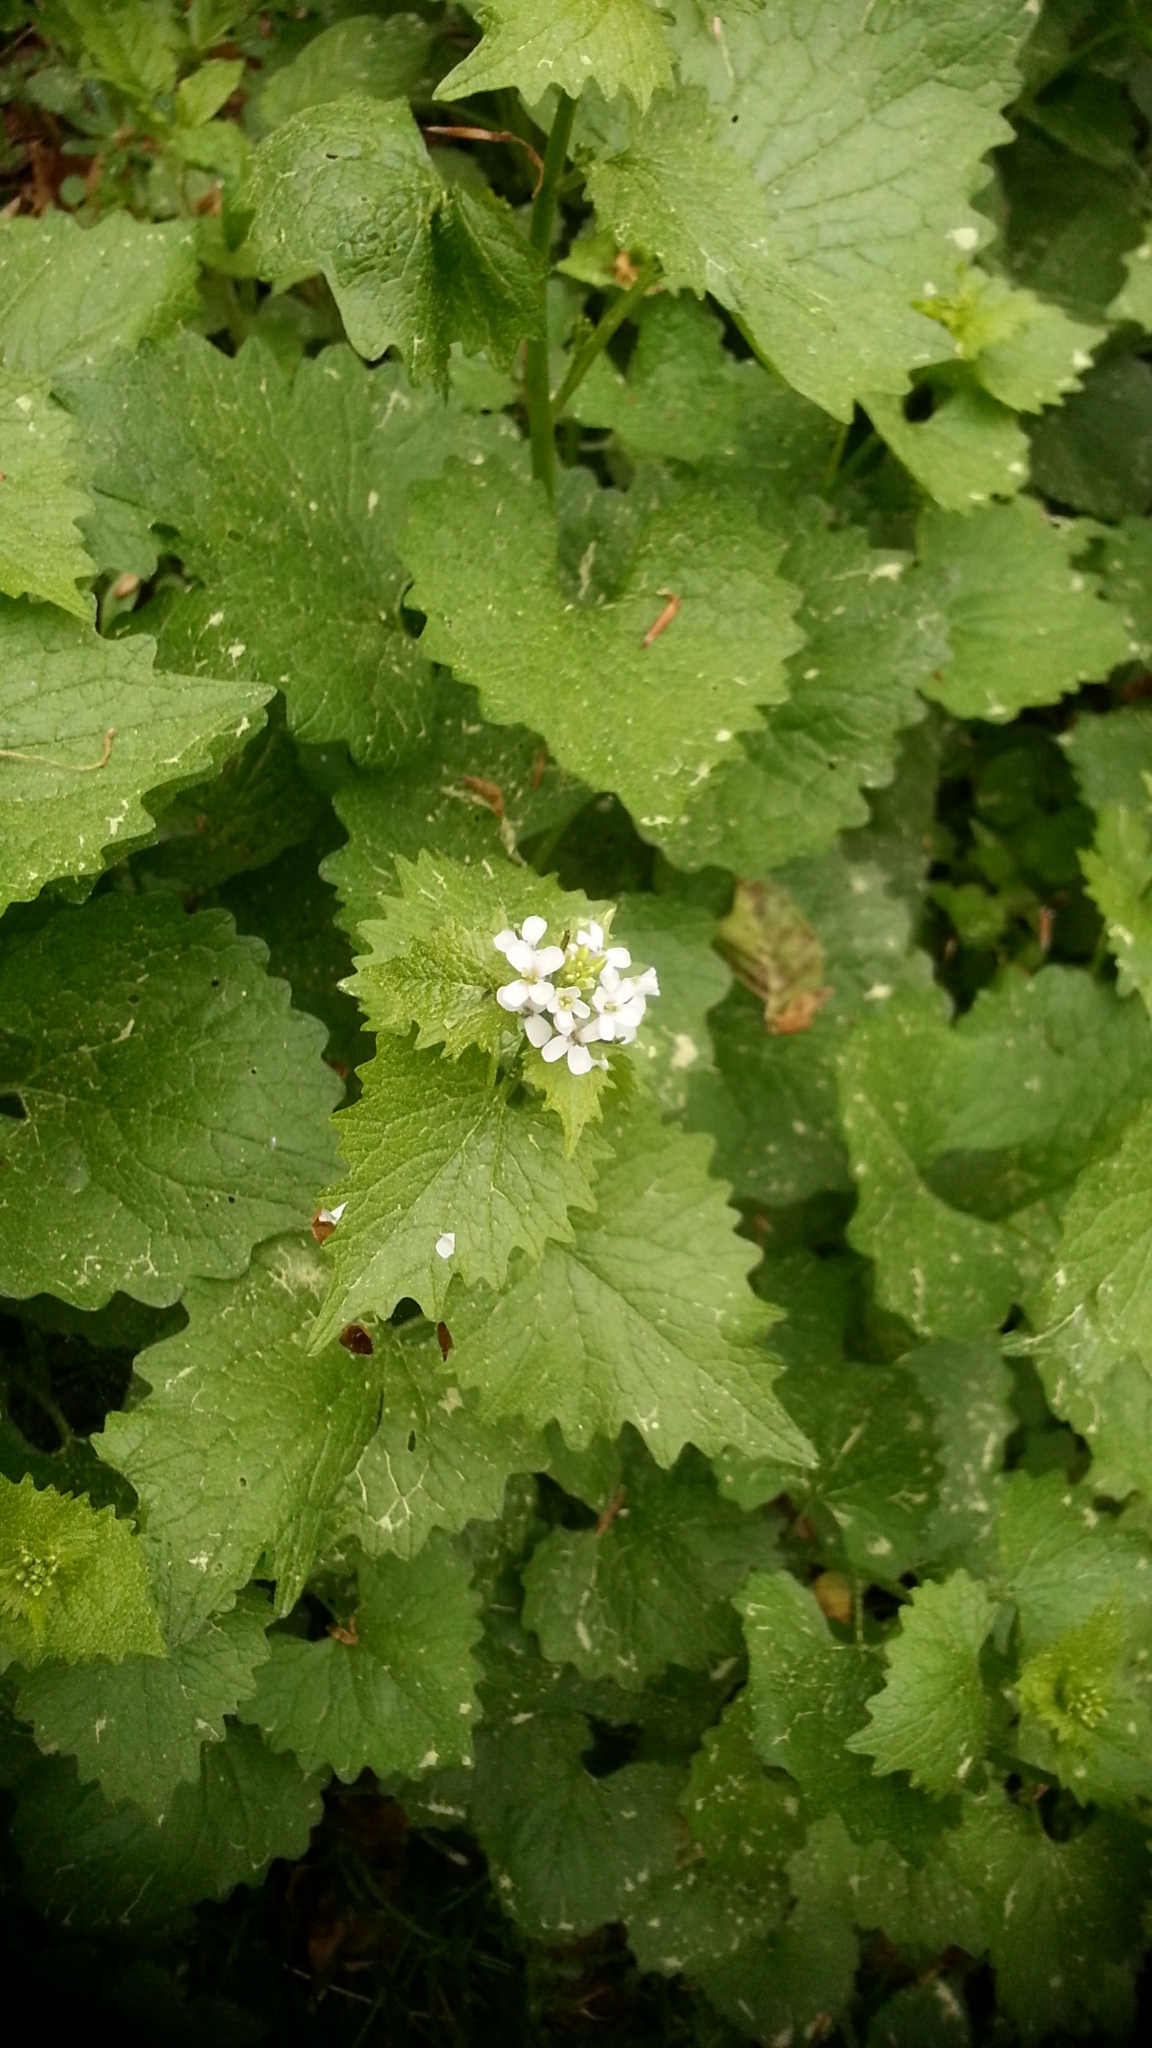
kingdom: Plantae
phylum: Tracheophyta
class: Magnoliopsida
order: Brassicales
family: Brassicaceae
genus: Alliaria
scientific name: Alliaria petiolata
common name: Garlic mustard
